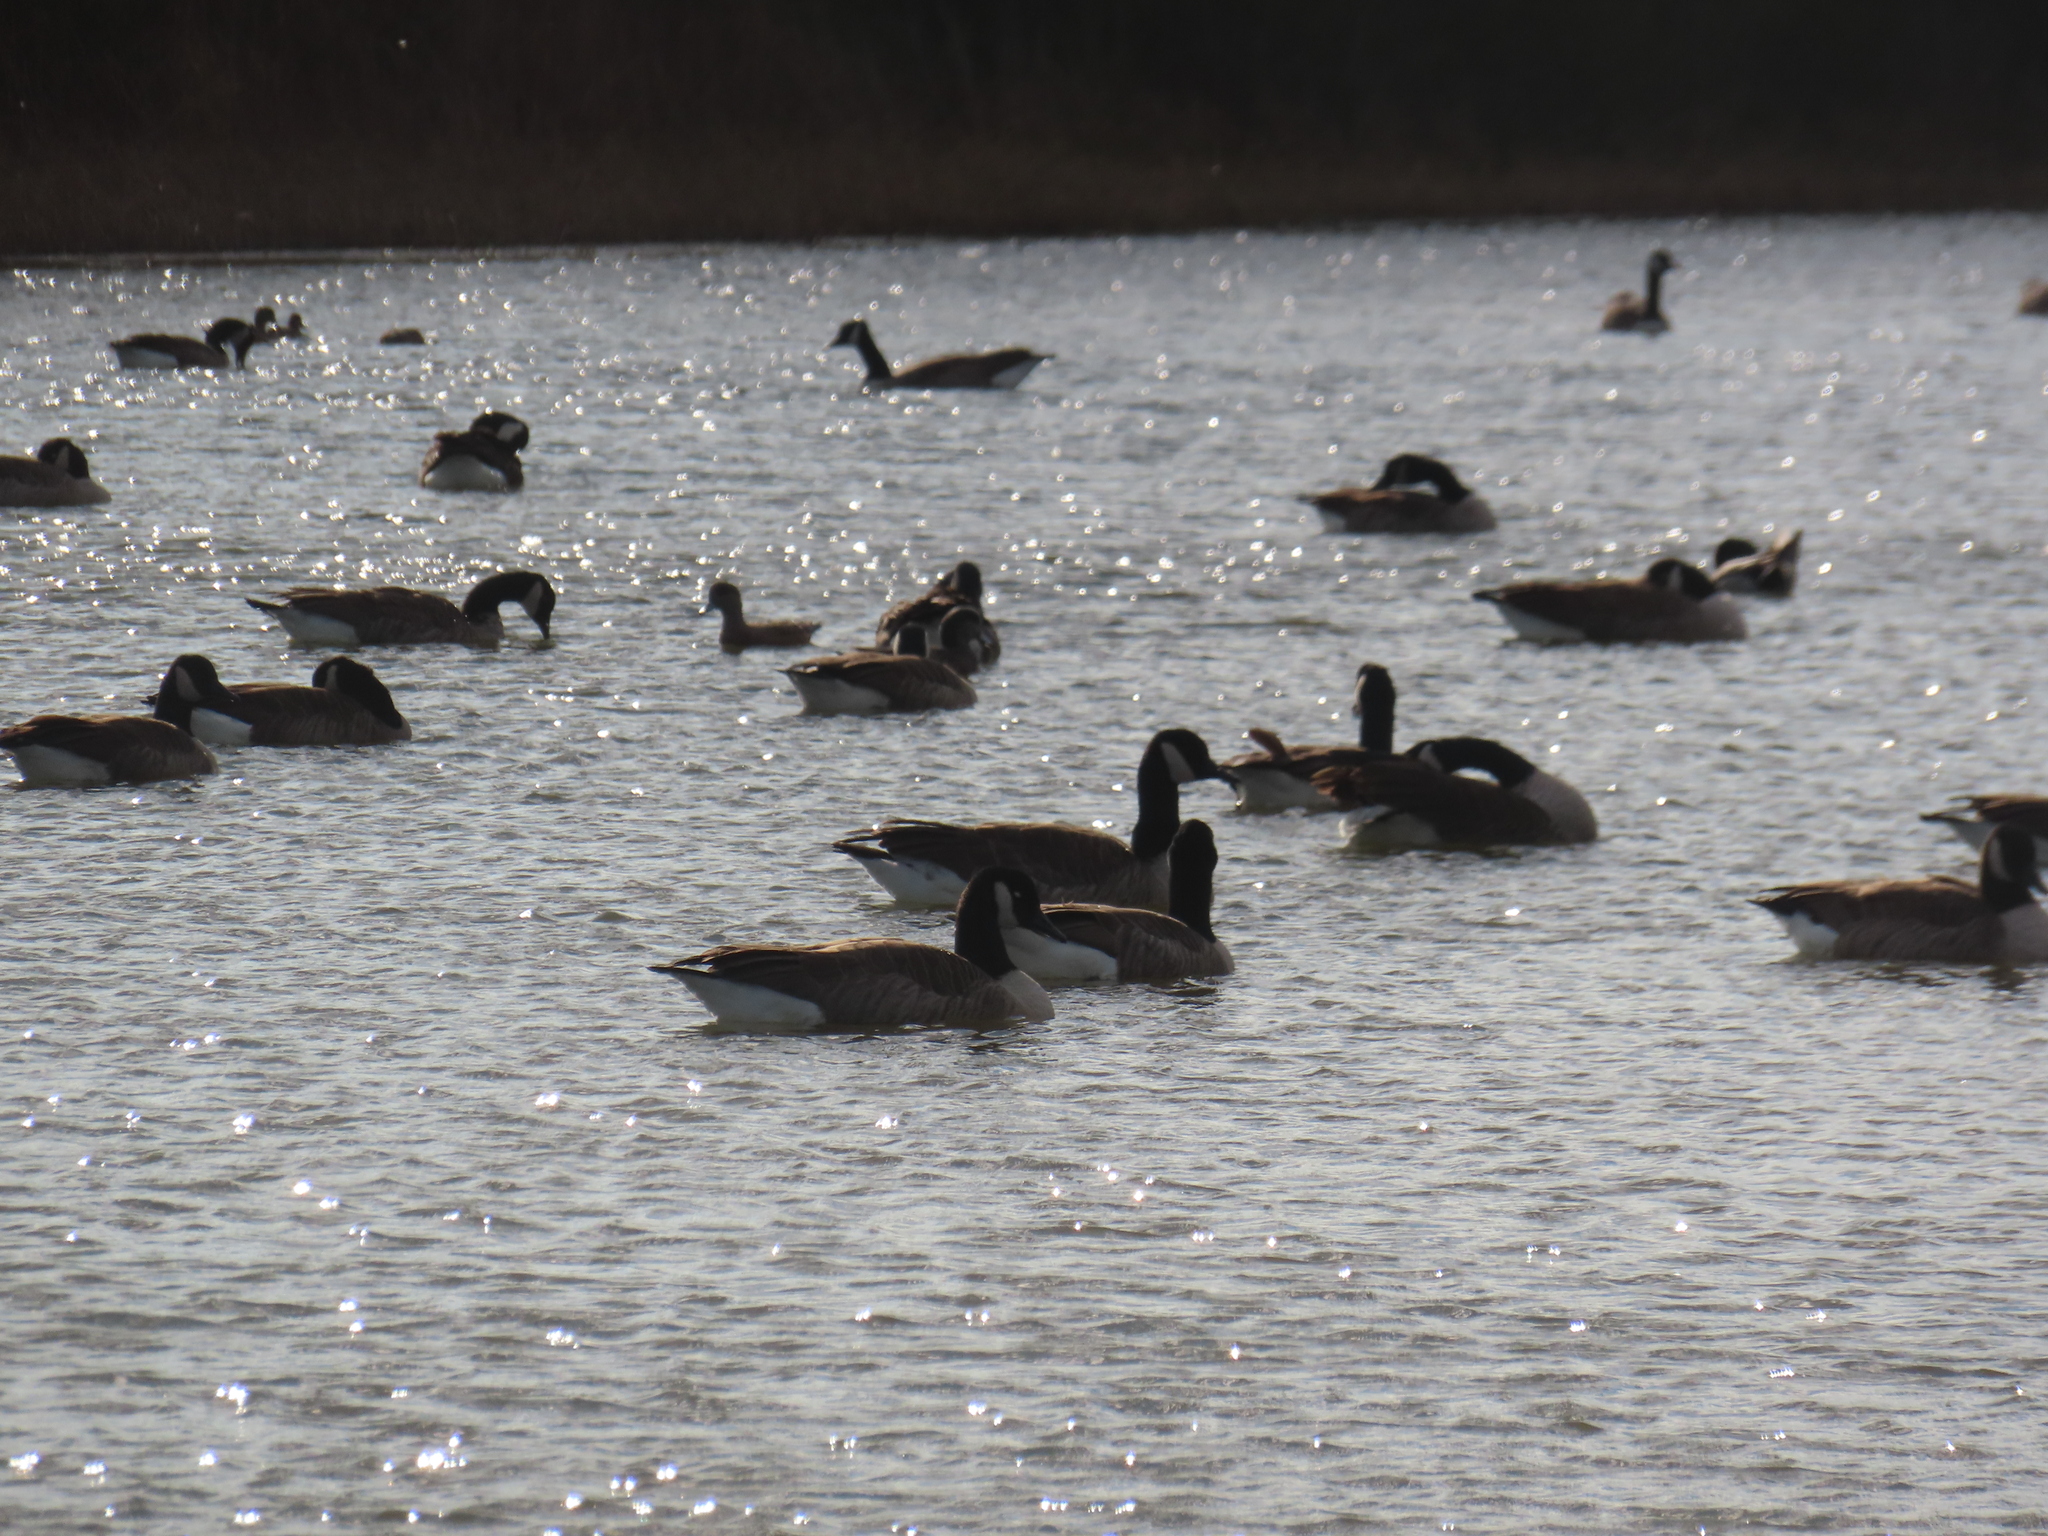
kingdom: Animalia
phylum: Chordata
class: Aves
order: Anseriformes
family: Anatidae
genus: Branta
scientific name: Branta canadensis
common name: Canada goose
